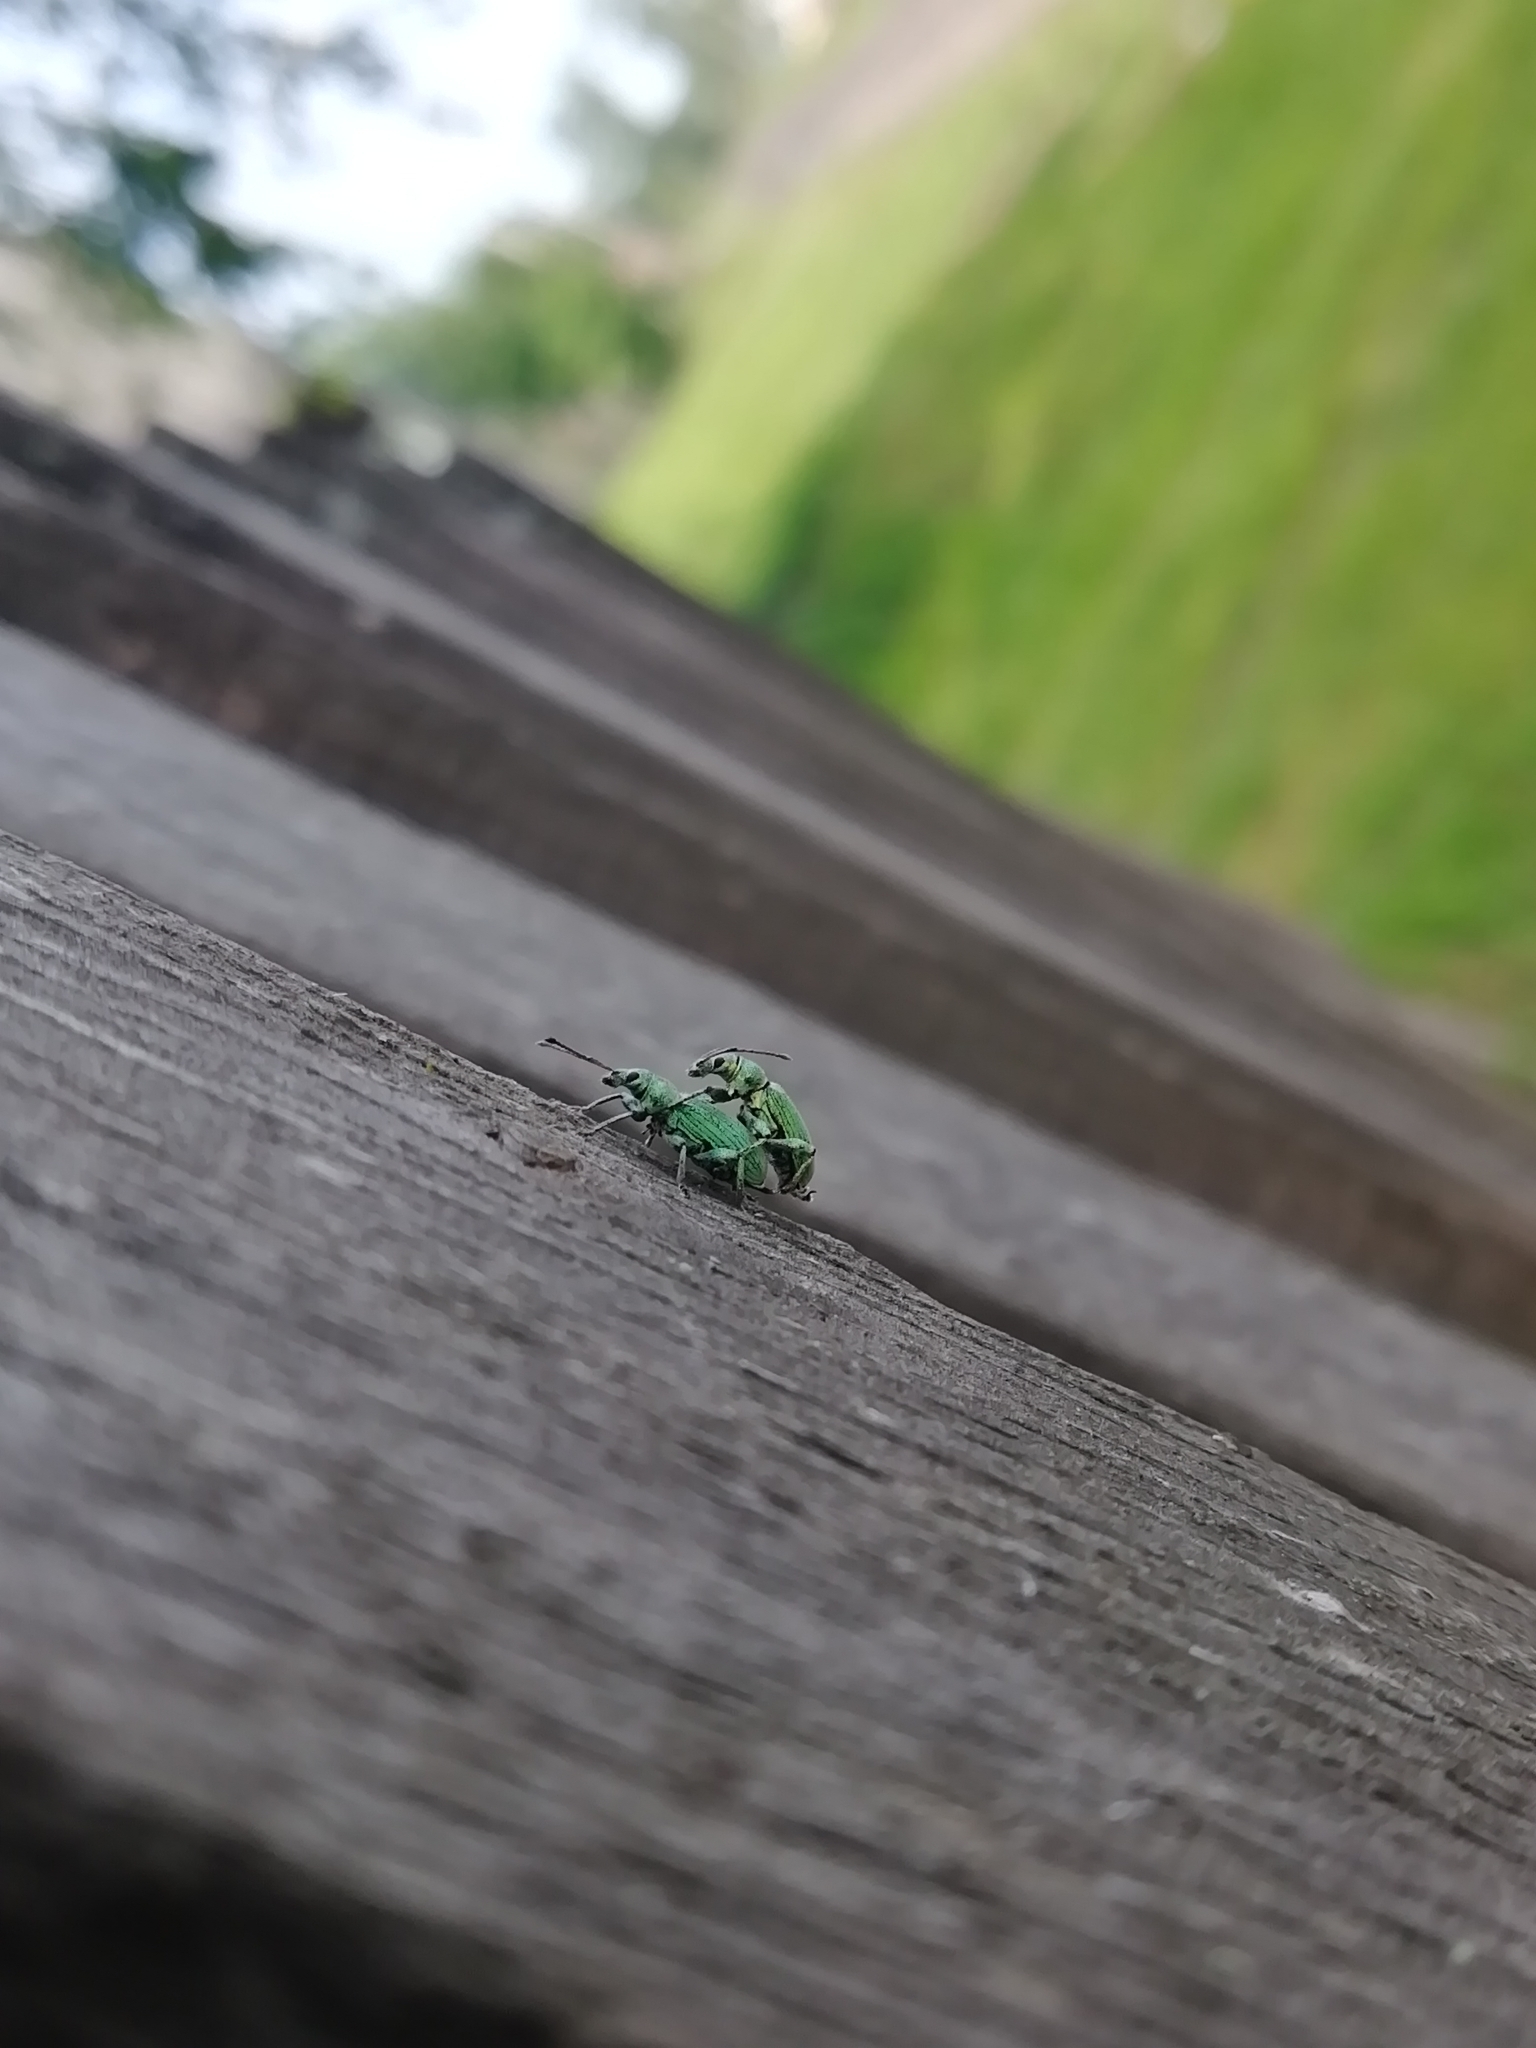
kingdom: Animalia
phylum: Arthropoda
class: Insecta
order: Coleoptera
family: Curculionidae
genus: Phyllobius
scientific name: Phyllobius pomaceus
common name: Green nettle weevil
